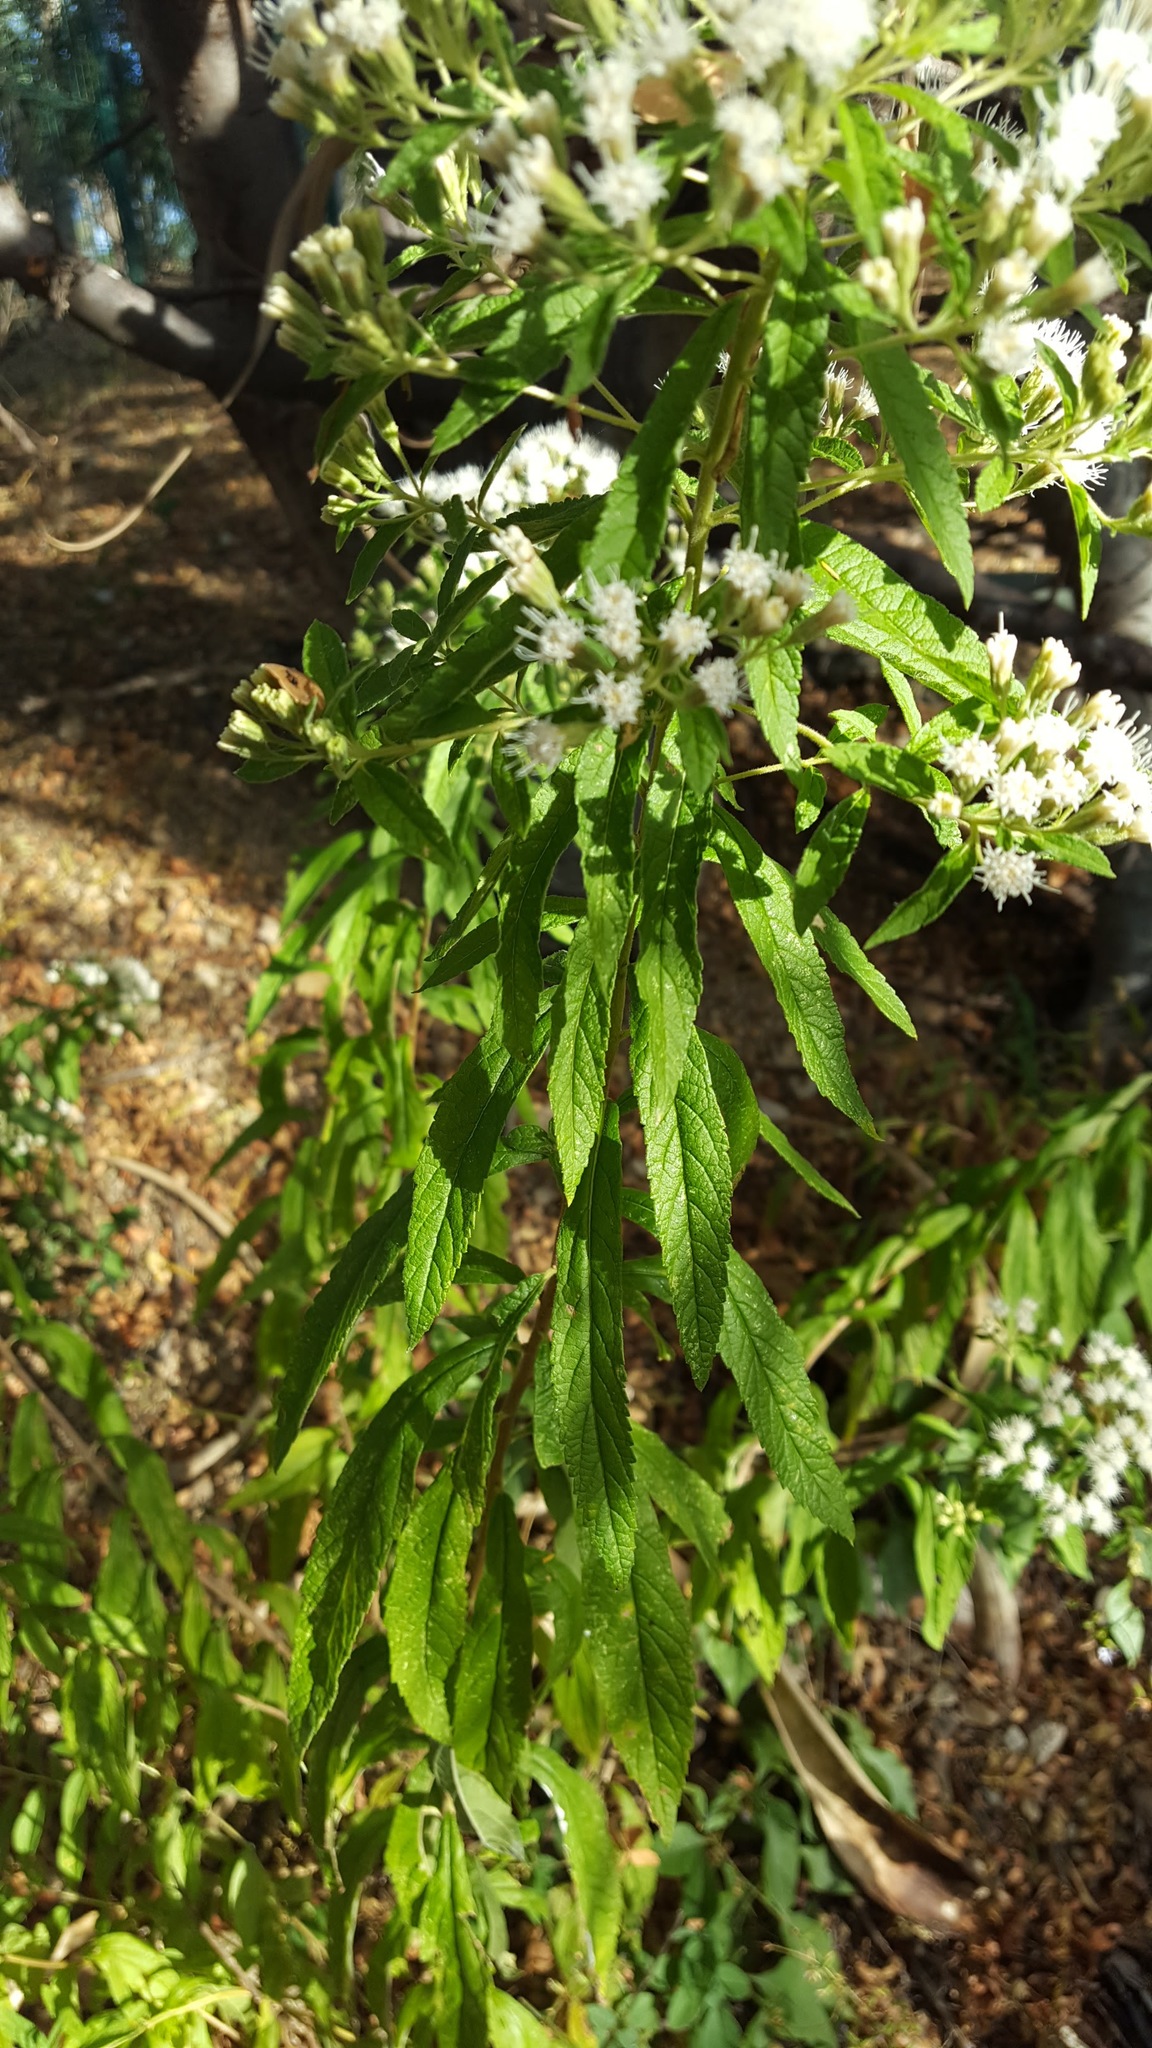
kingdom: Plantae
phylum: Tracheophyta
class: Magnoliopsida
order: Asterales
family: Asteraceae
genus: Ageratina
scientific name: Ageratina liebmannii
